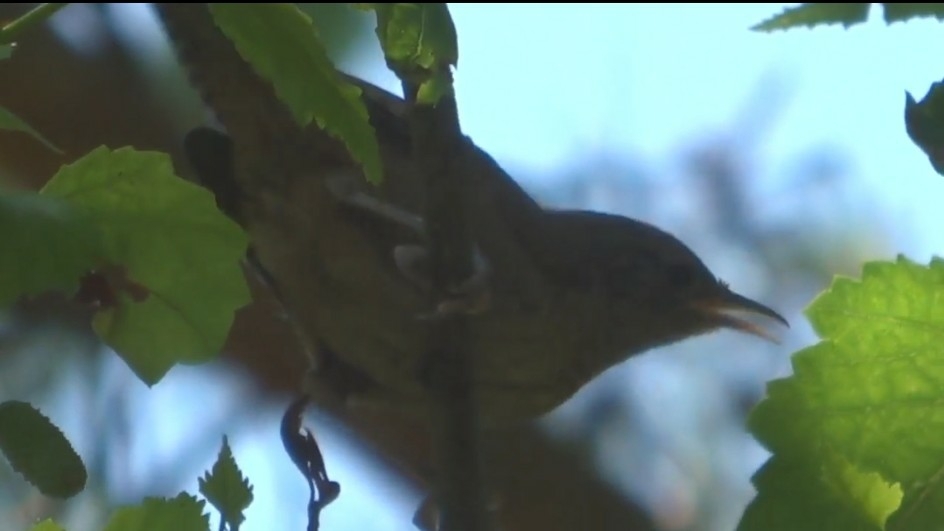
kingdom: Animalia
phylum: Chordata
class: Aves
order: Passeriformes
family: Troglodytidae
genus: Troglodytes
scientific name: Troglodytes aedon
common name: House wren
